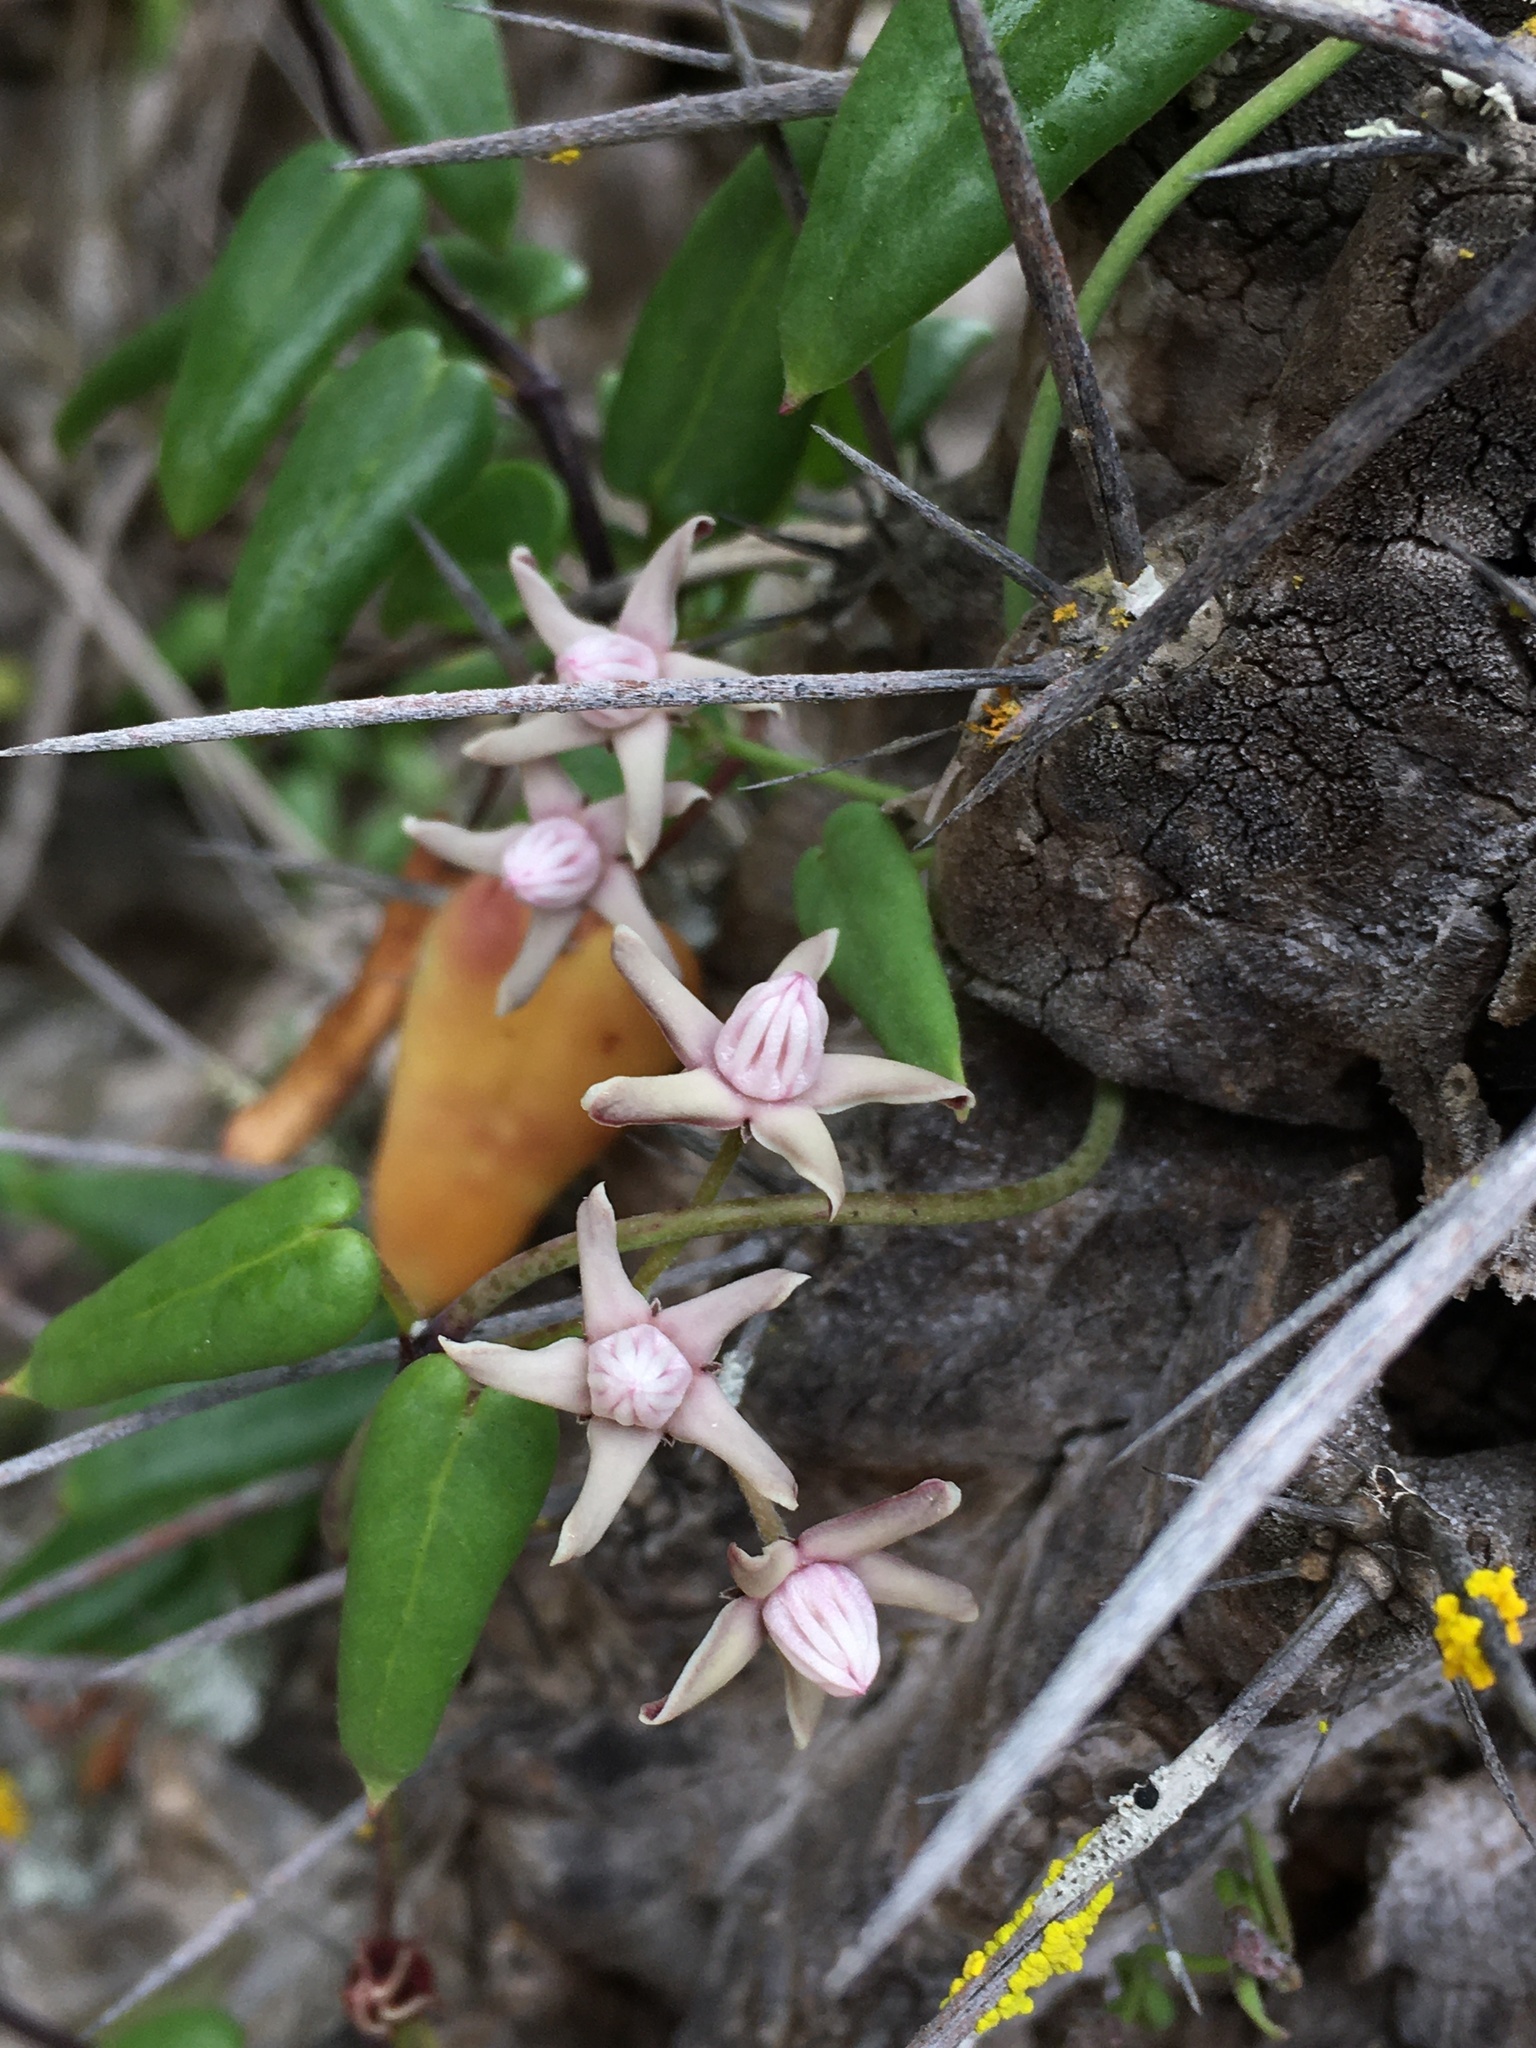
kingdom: Plantae
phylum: Tracheophyta
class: Magnoliopsida
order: Gentianales
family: Apocynaceae
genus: Diplolepis
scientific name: Diplolepis boerhaviifolia
